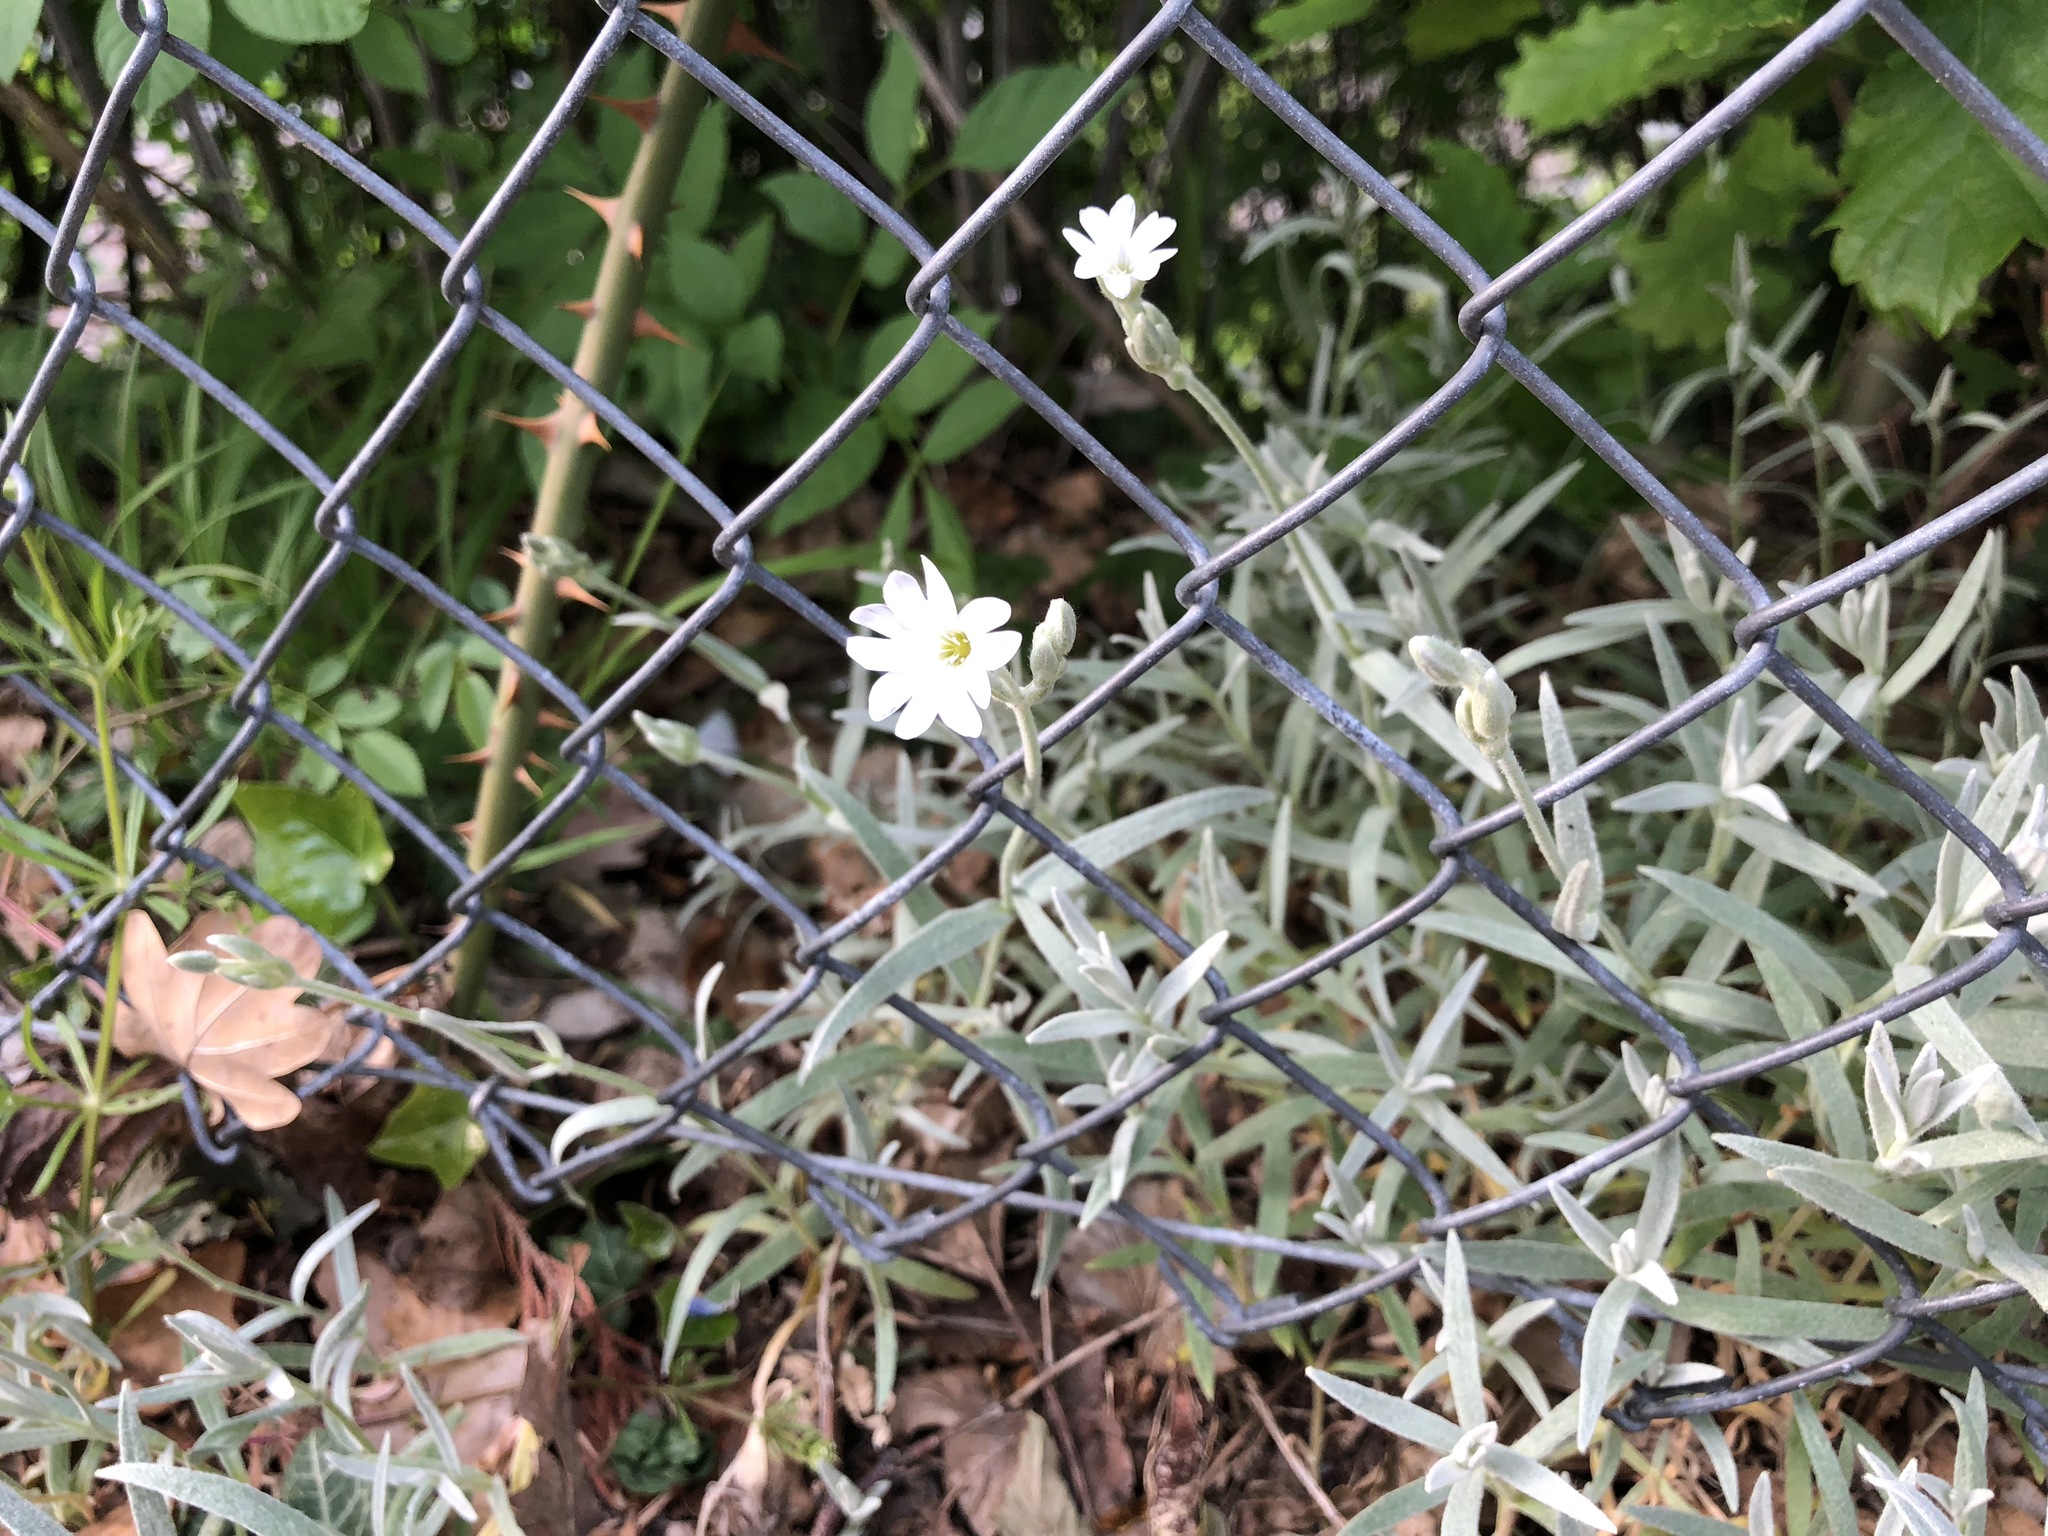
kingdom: Plantae
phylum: Tracheophyta
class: Magnoliopsida
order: Caryophyllales
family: Caryophyllaceae
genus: Cerastium
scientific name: Cerastium tomentosum
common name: Snow-in-summer
